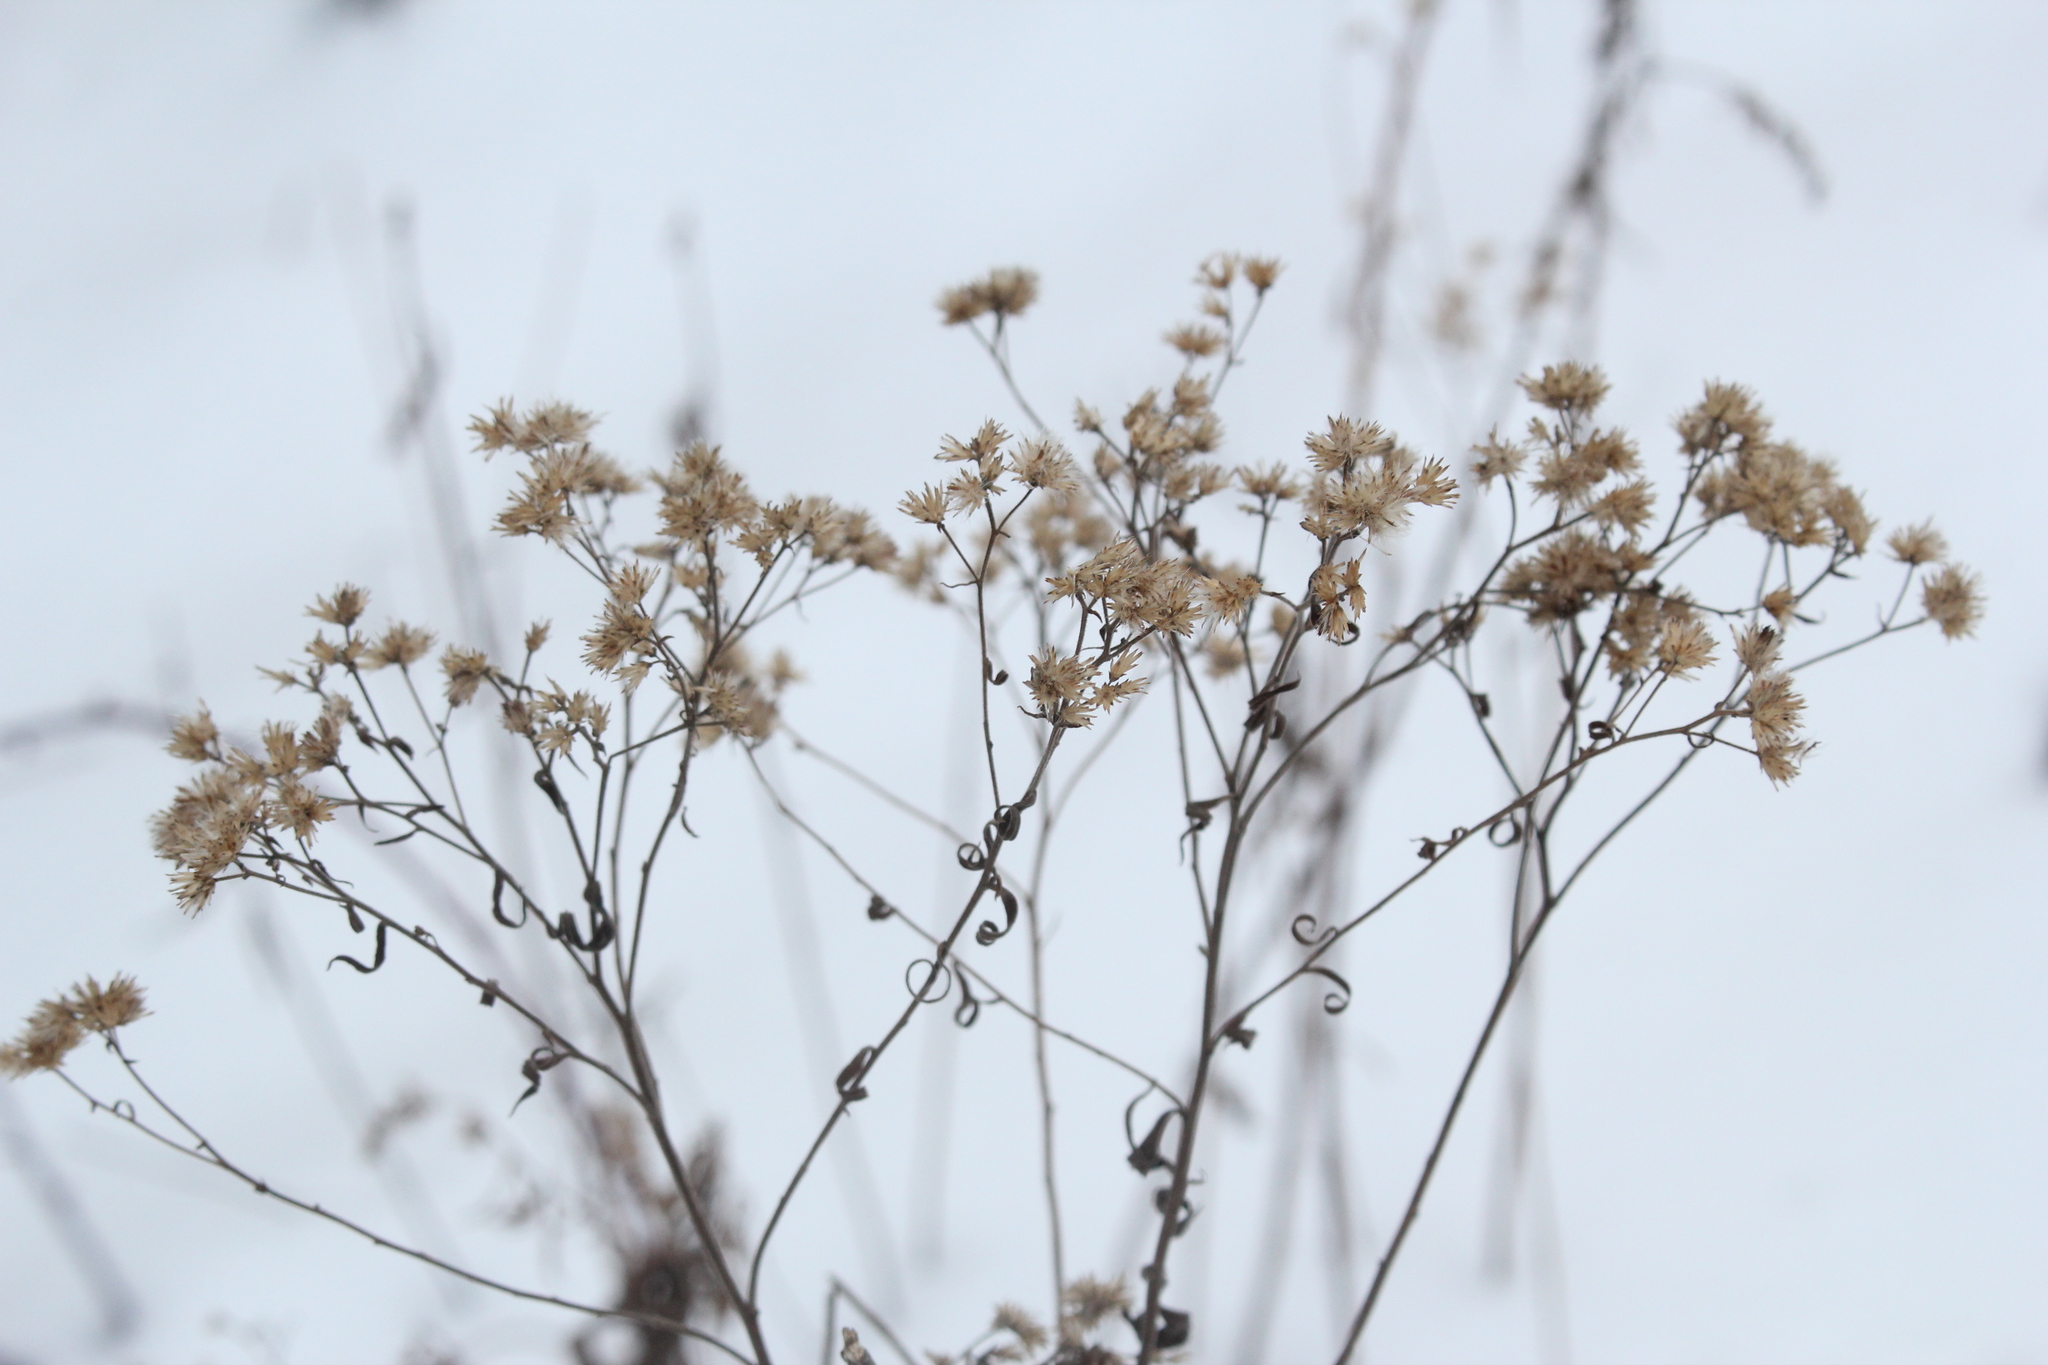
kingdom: Plantae
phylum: Tracheophyta
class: Magnoliopsida
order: Asterales
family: Asteraceae
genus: Euthamia
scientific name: Euthamia graminifolia
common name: Common goldentop
